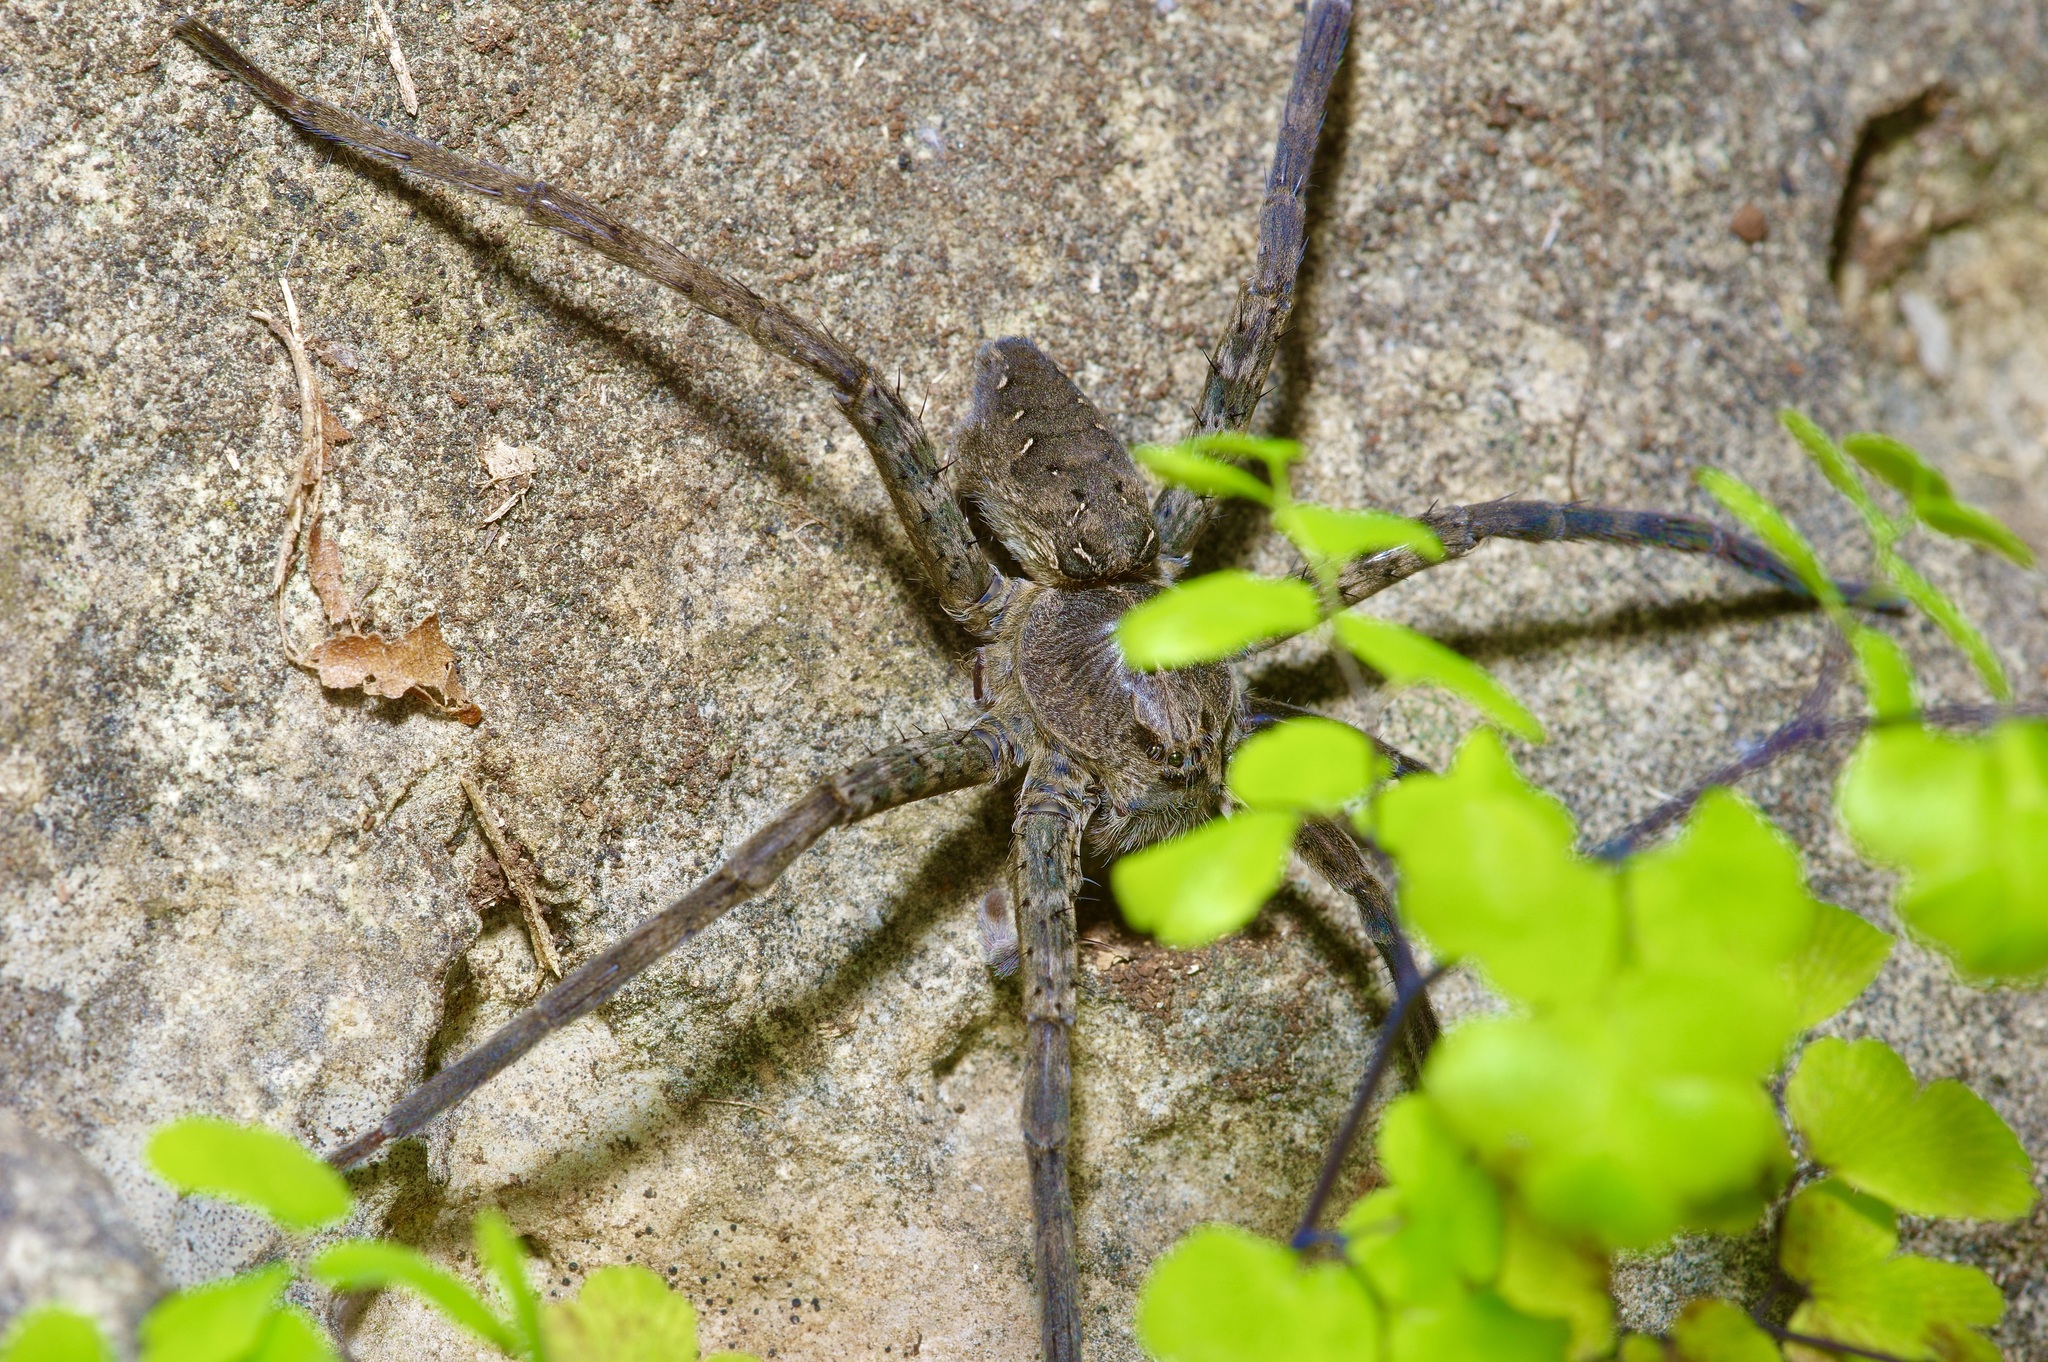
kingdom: Animalia
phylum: Arthropoda
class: Arachnida
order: Araneae
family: Pisauridae
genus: Dolomedes
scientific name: Dolomedes vittatus
